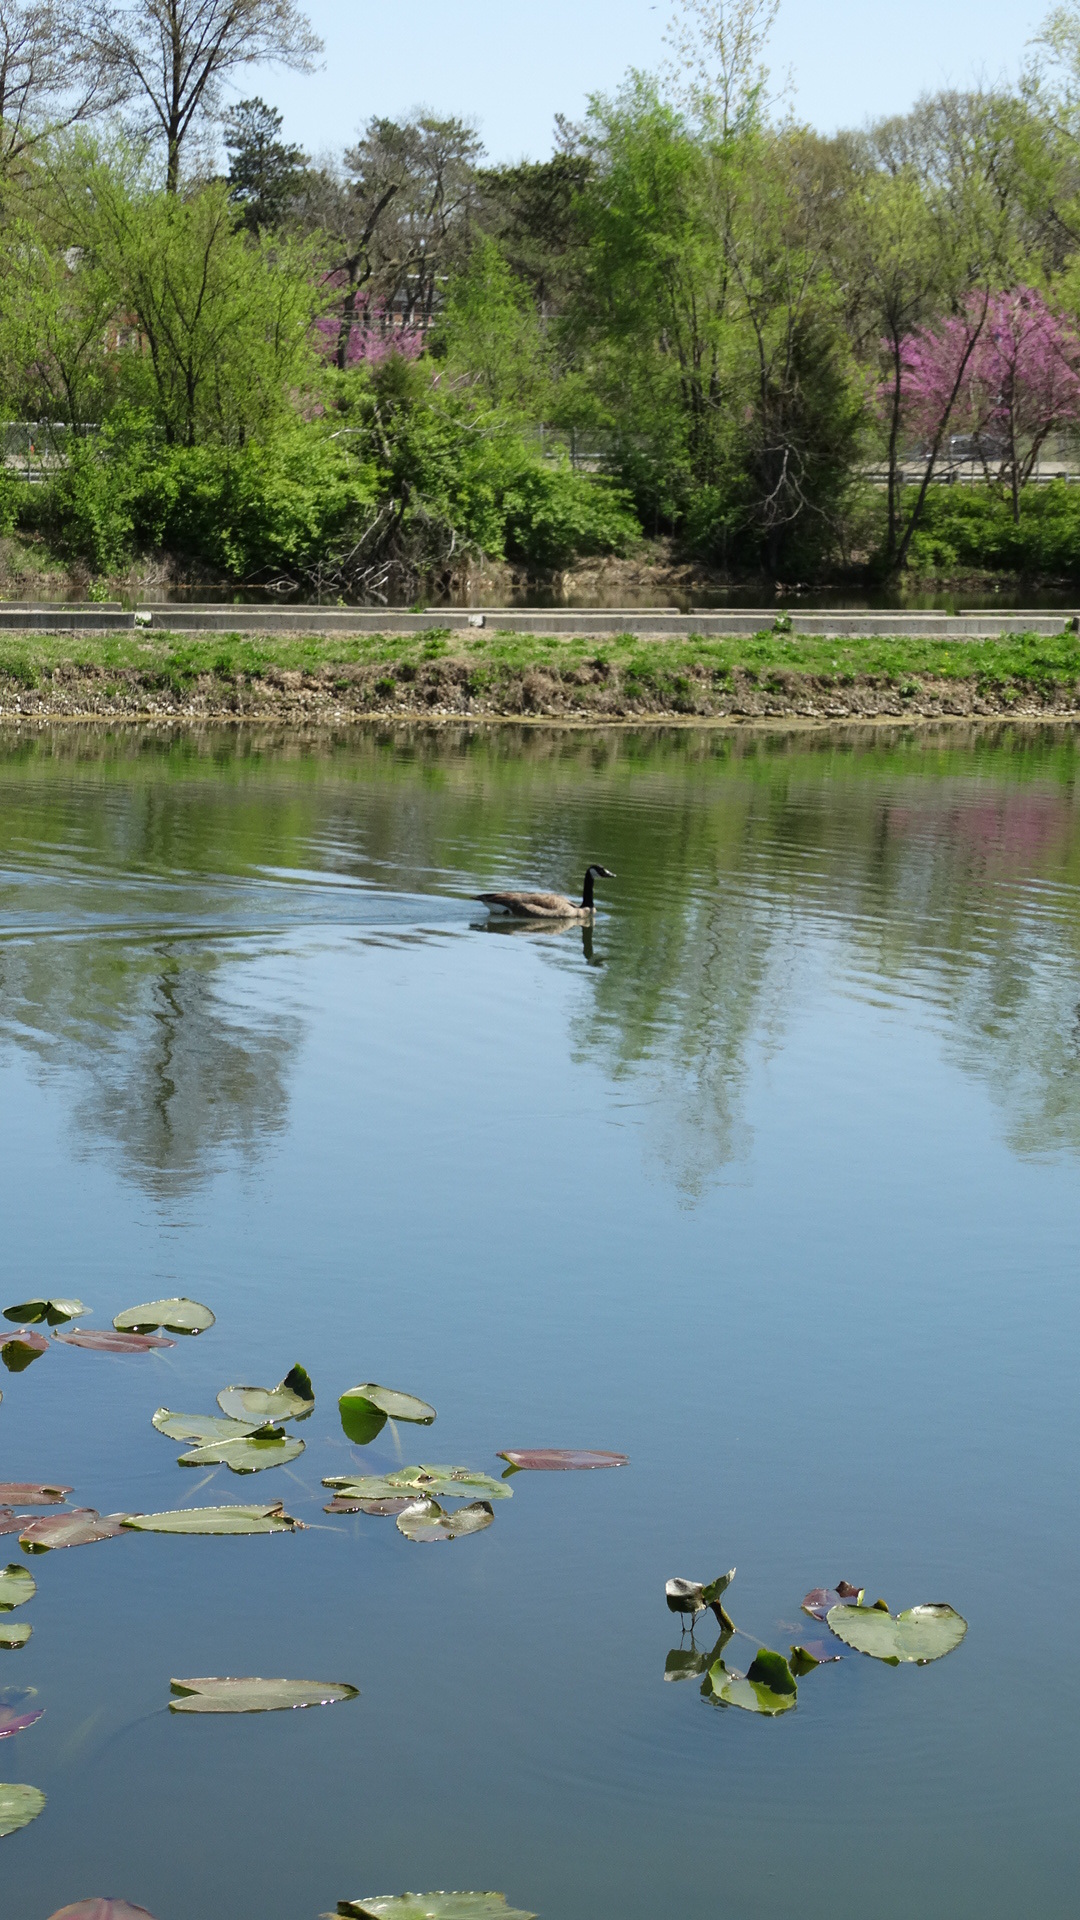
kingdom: Animalia
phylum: Chordata
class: Aves
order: Anseriformes
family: Anatidae
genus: Branta
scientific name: Branta canadensis
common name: Canada goose
